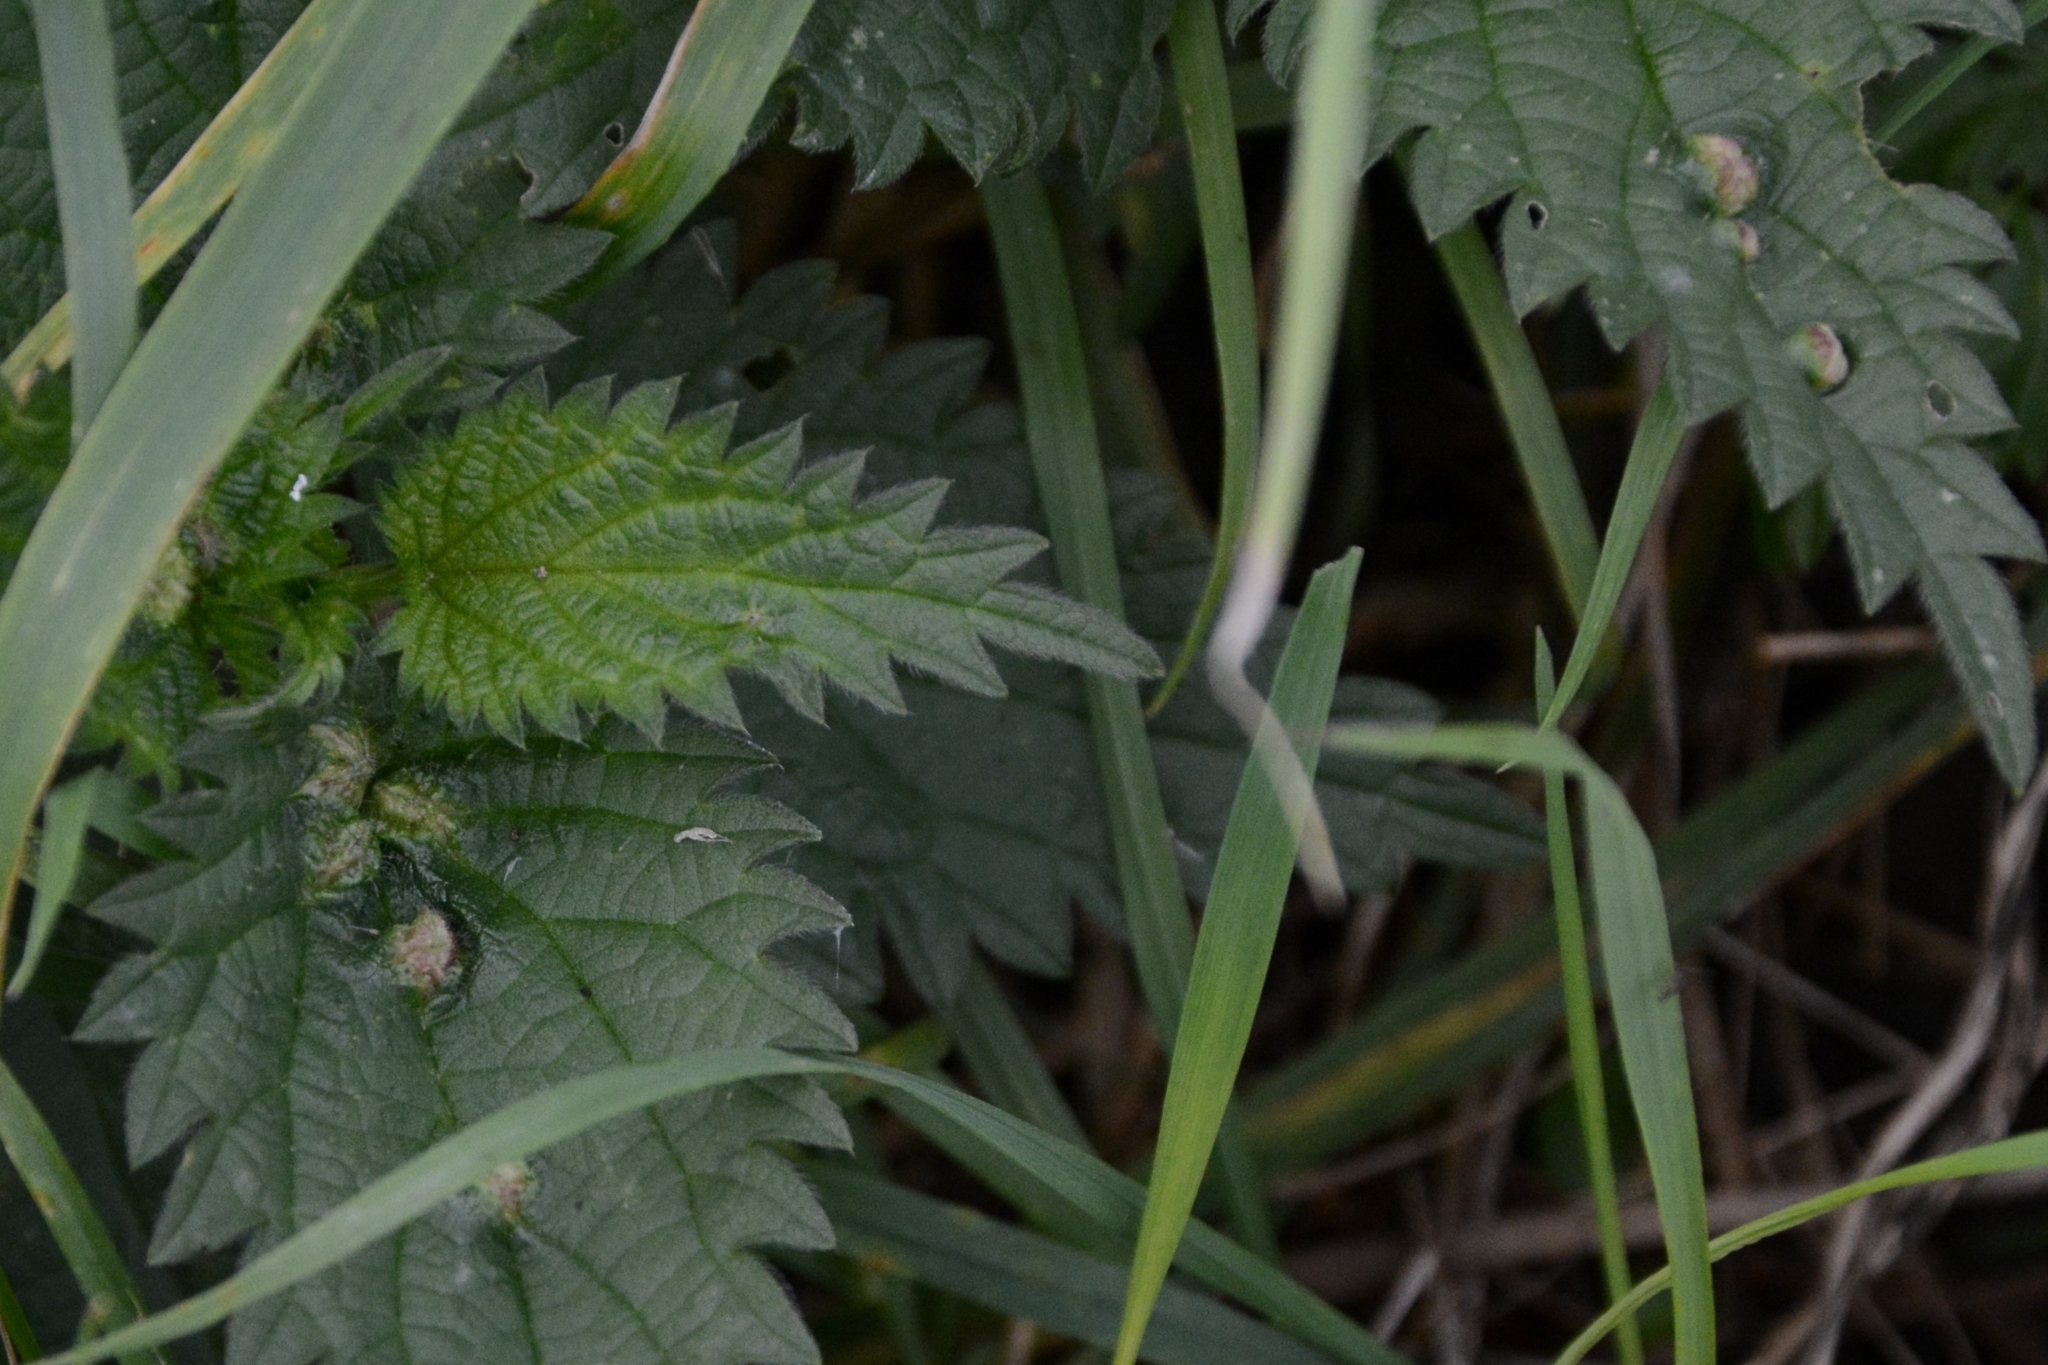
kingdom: Animalia
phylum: Arthropoda
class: Insecta
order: Diptera
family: Cecidomyiidae
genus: Dasineura
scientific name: Dasineura urticae
